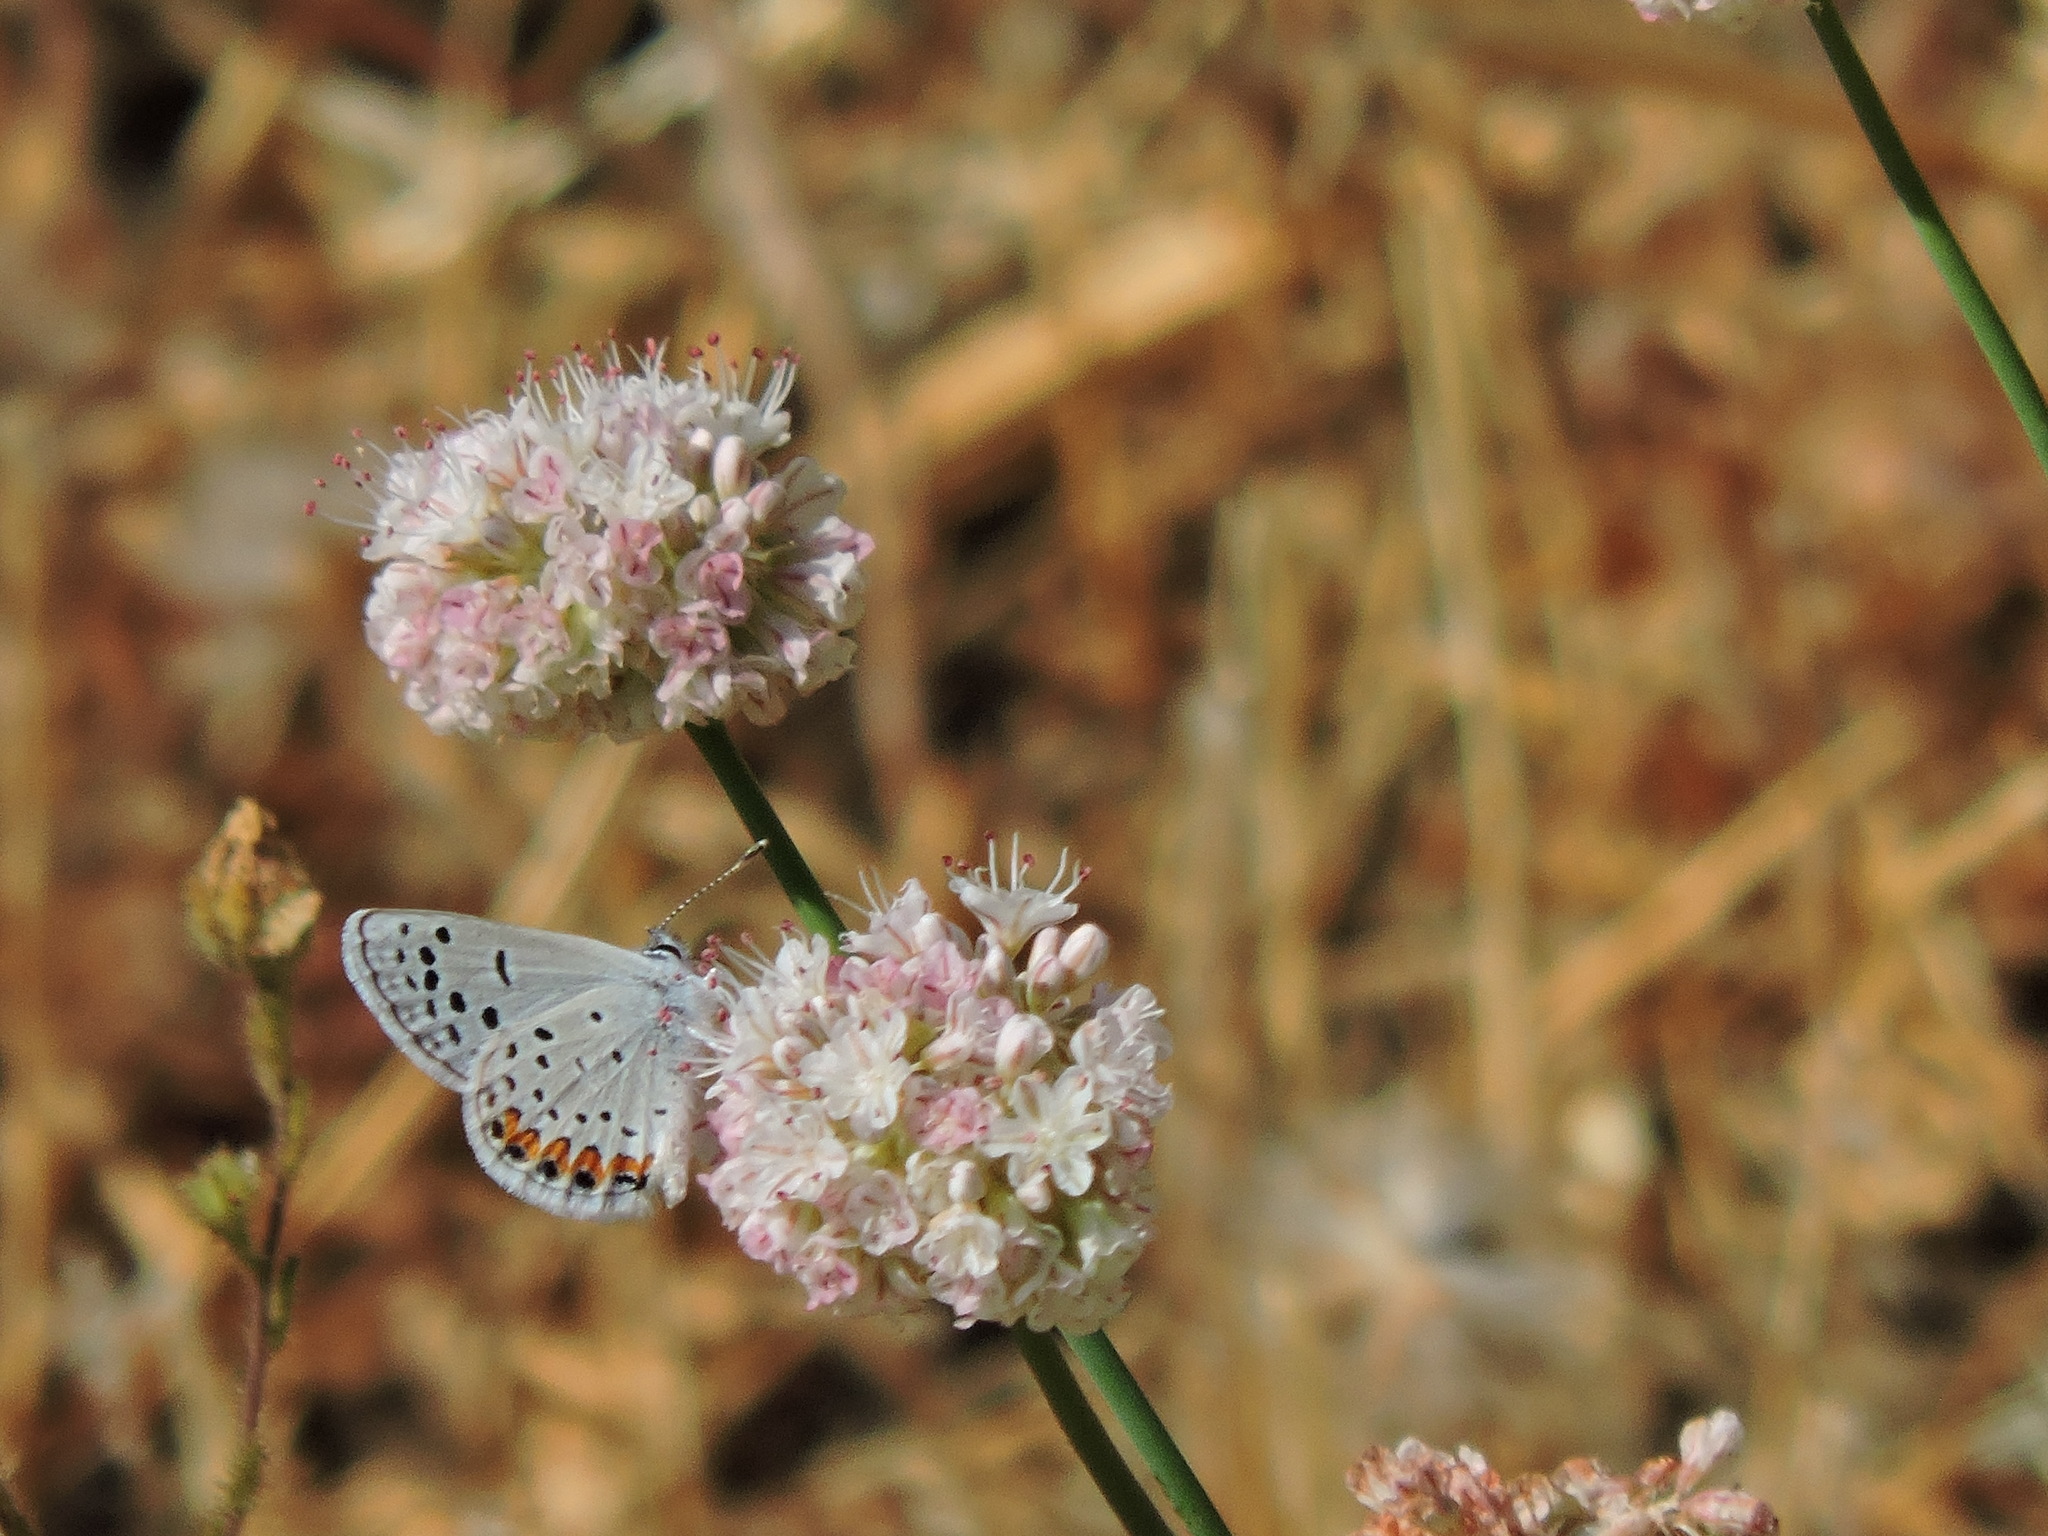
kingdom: Animalia
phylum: Arthropoda
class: Insecta
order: Lepidoptera
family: Lycaenidae
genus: Icaricia
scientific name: Icaricia acmon
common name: Acmon blue
